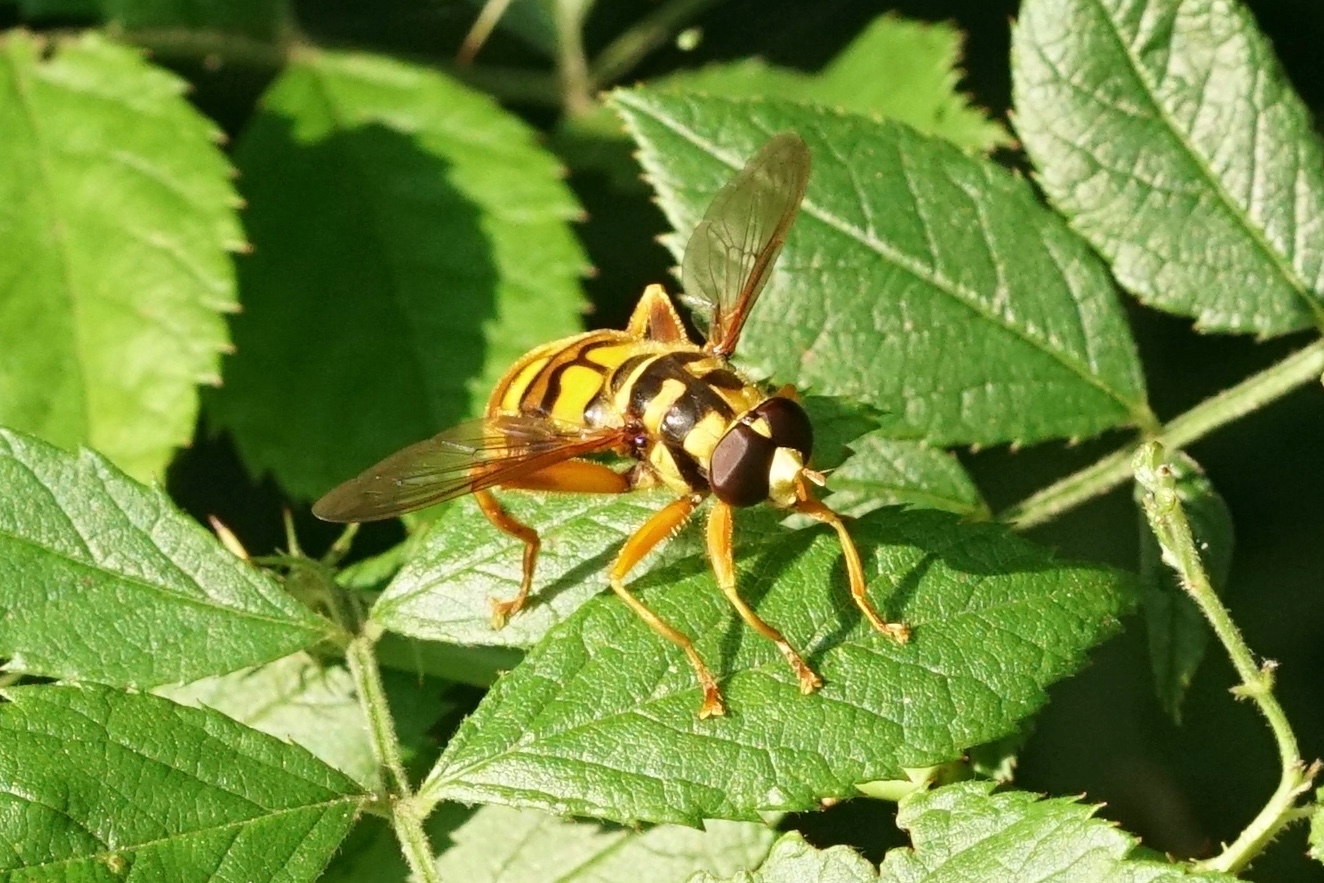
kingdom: Animalia
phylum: Arthropoda
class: Insecta
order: Diptera
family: Syrphidae
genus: Milesia
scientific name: Milesia virginiensis
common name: Virginia giant
